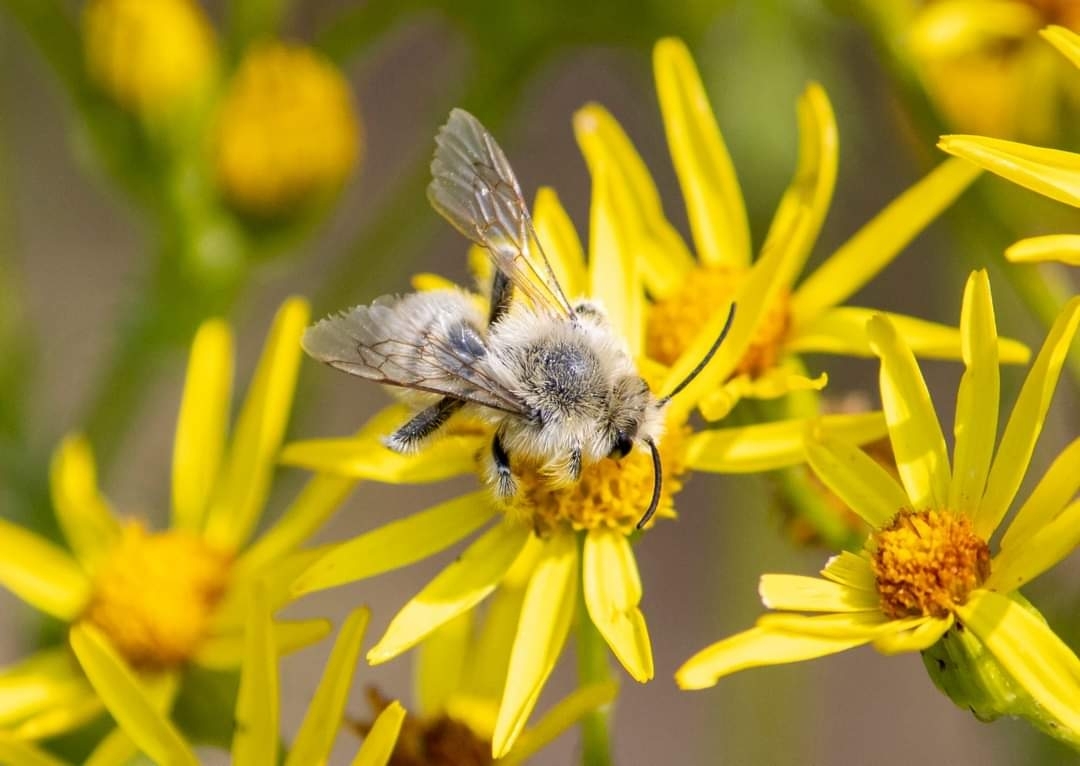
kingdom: Animalia
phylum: Arthropoda
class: Insecta
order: Hymenoptera
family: Melittidae
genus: Dasypoda
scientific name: Dasypoda hirtipes
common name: Pantaloon bee
